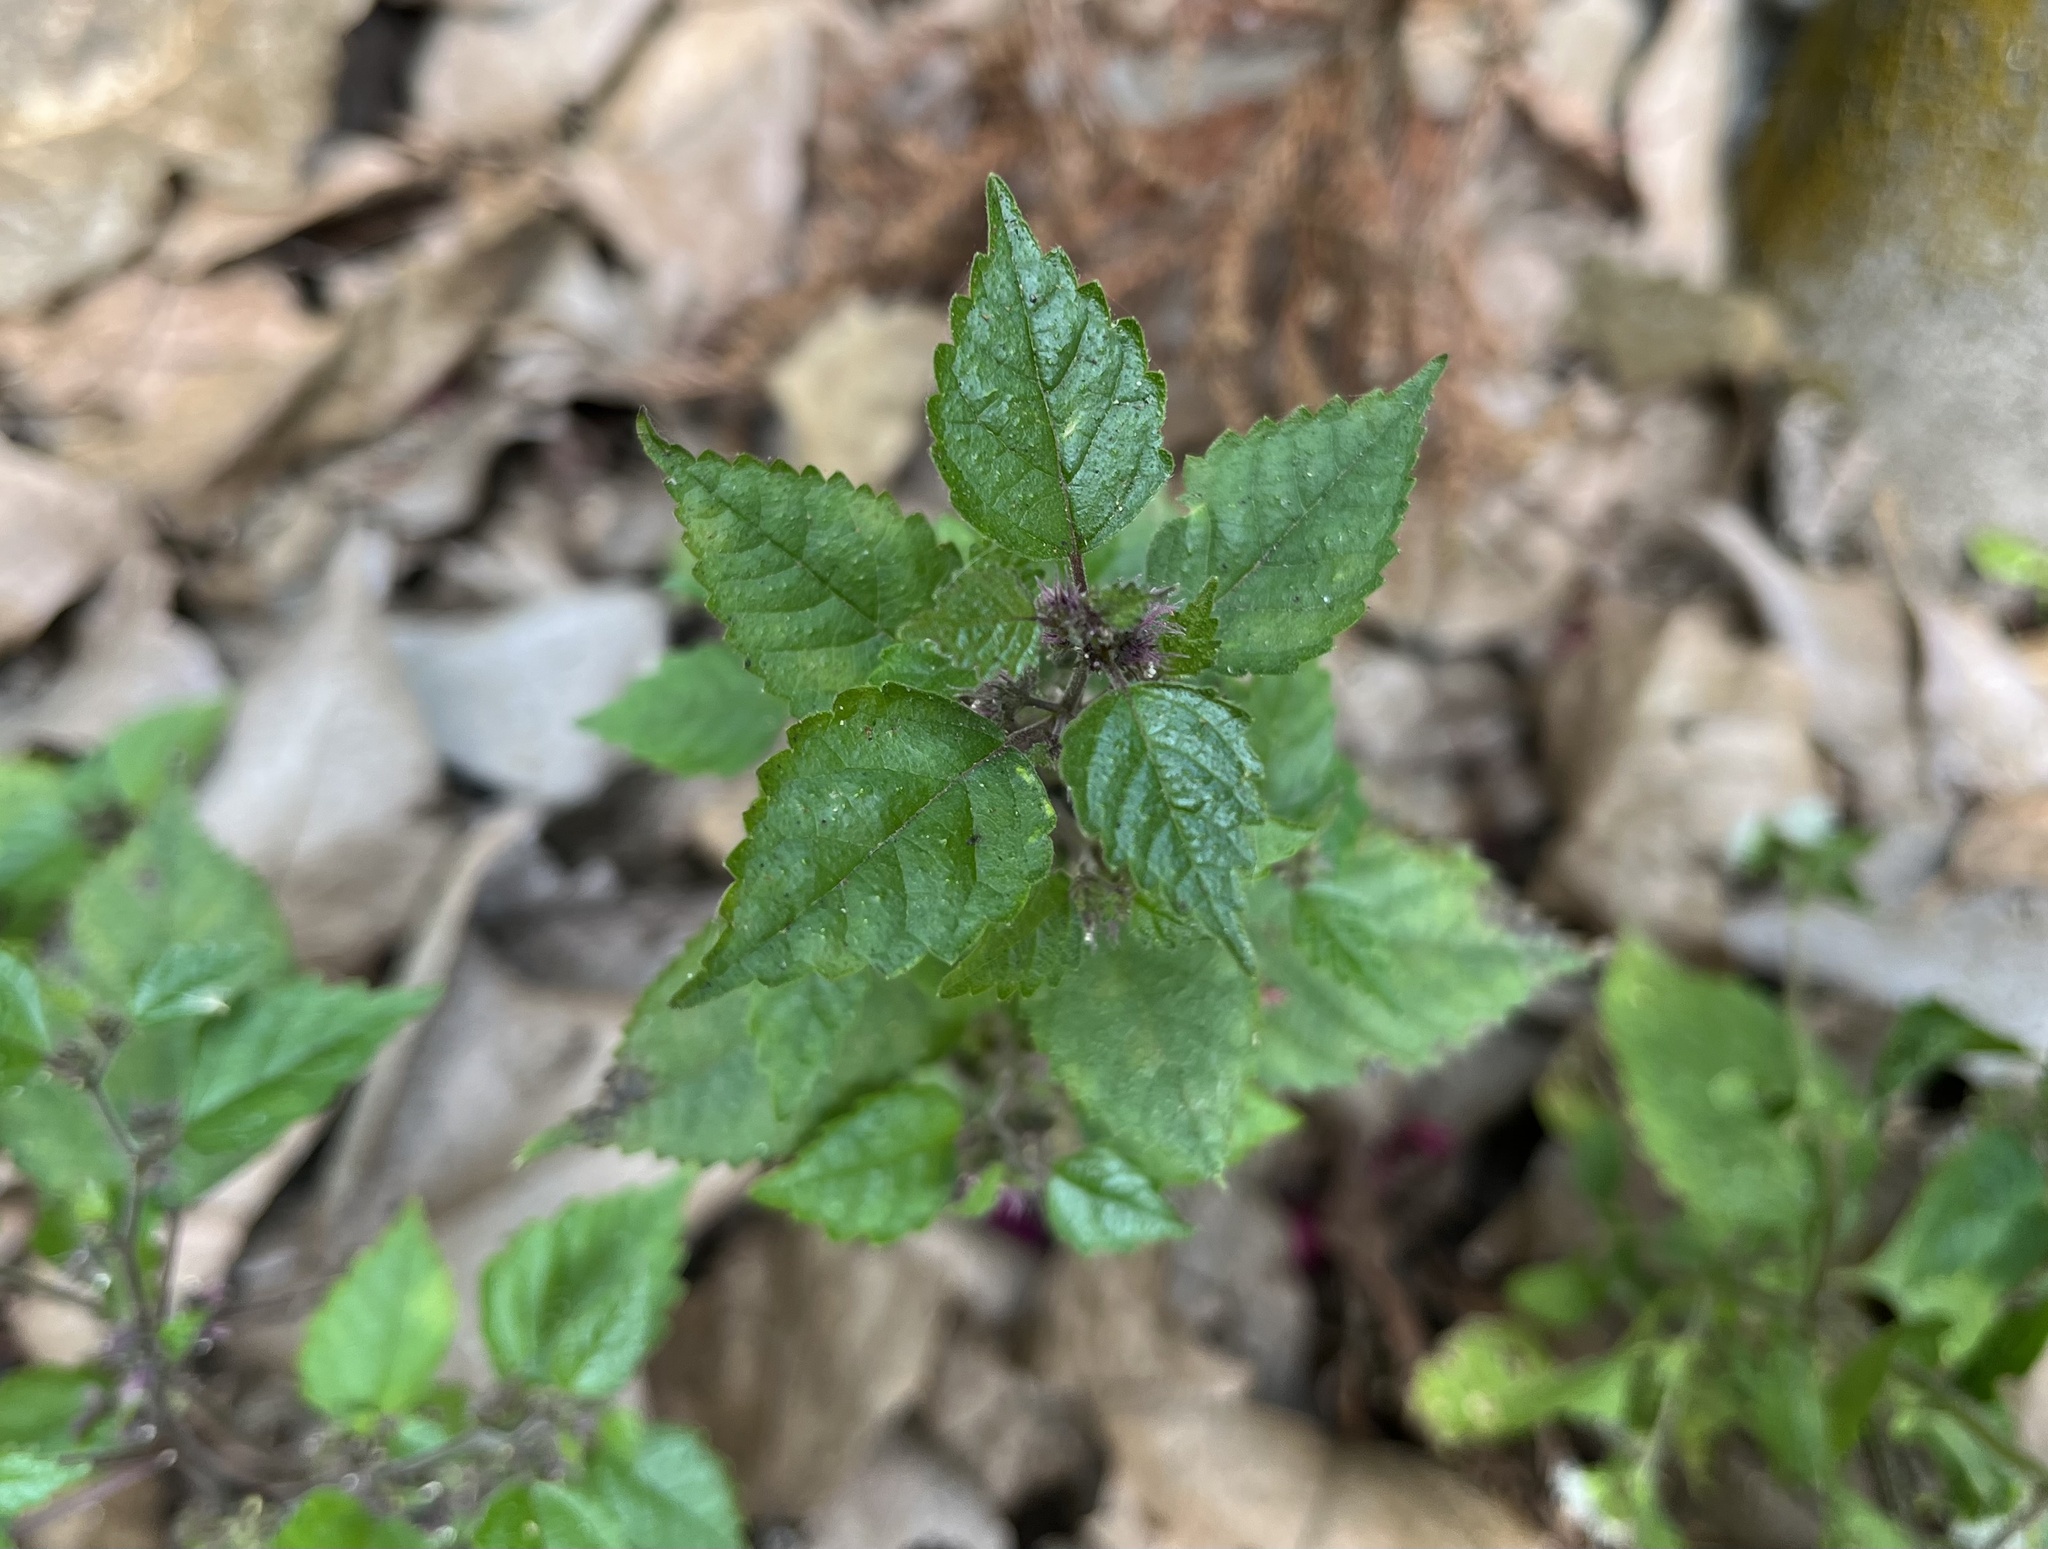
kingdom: Plantae
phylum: Tracheophyta
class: Magnoliopsida
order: Rosales
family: Moraceae
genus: Fatoua
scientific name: Fatoua villosa
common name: Hairy crabweed
